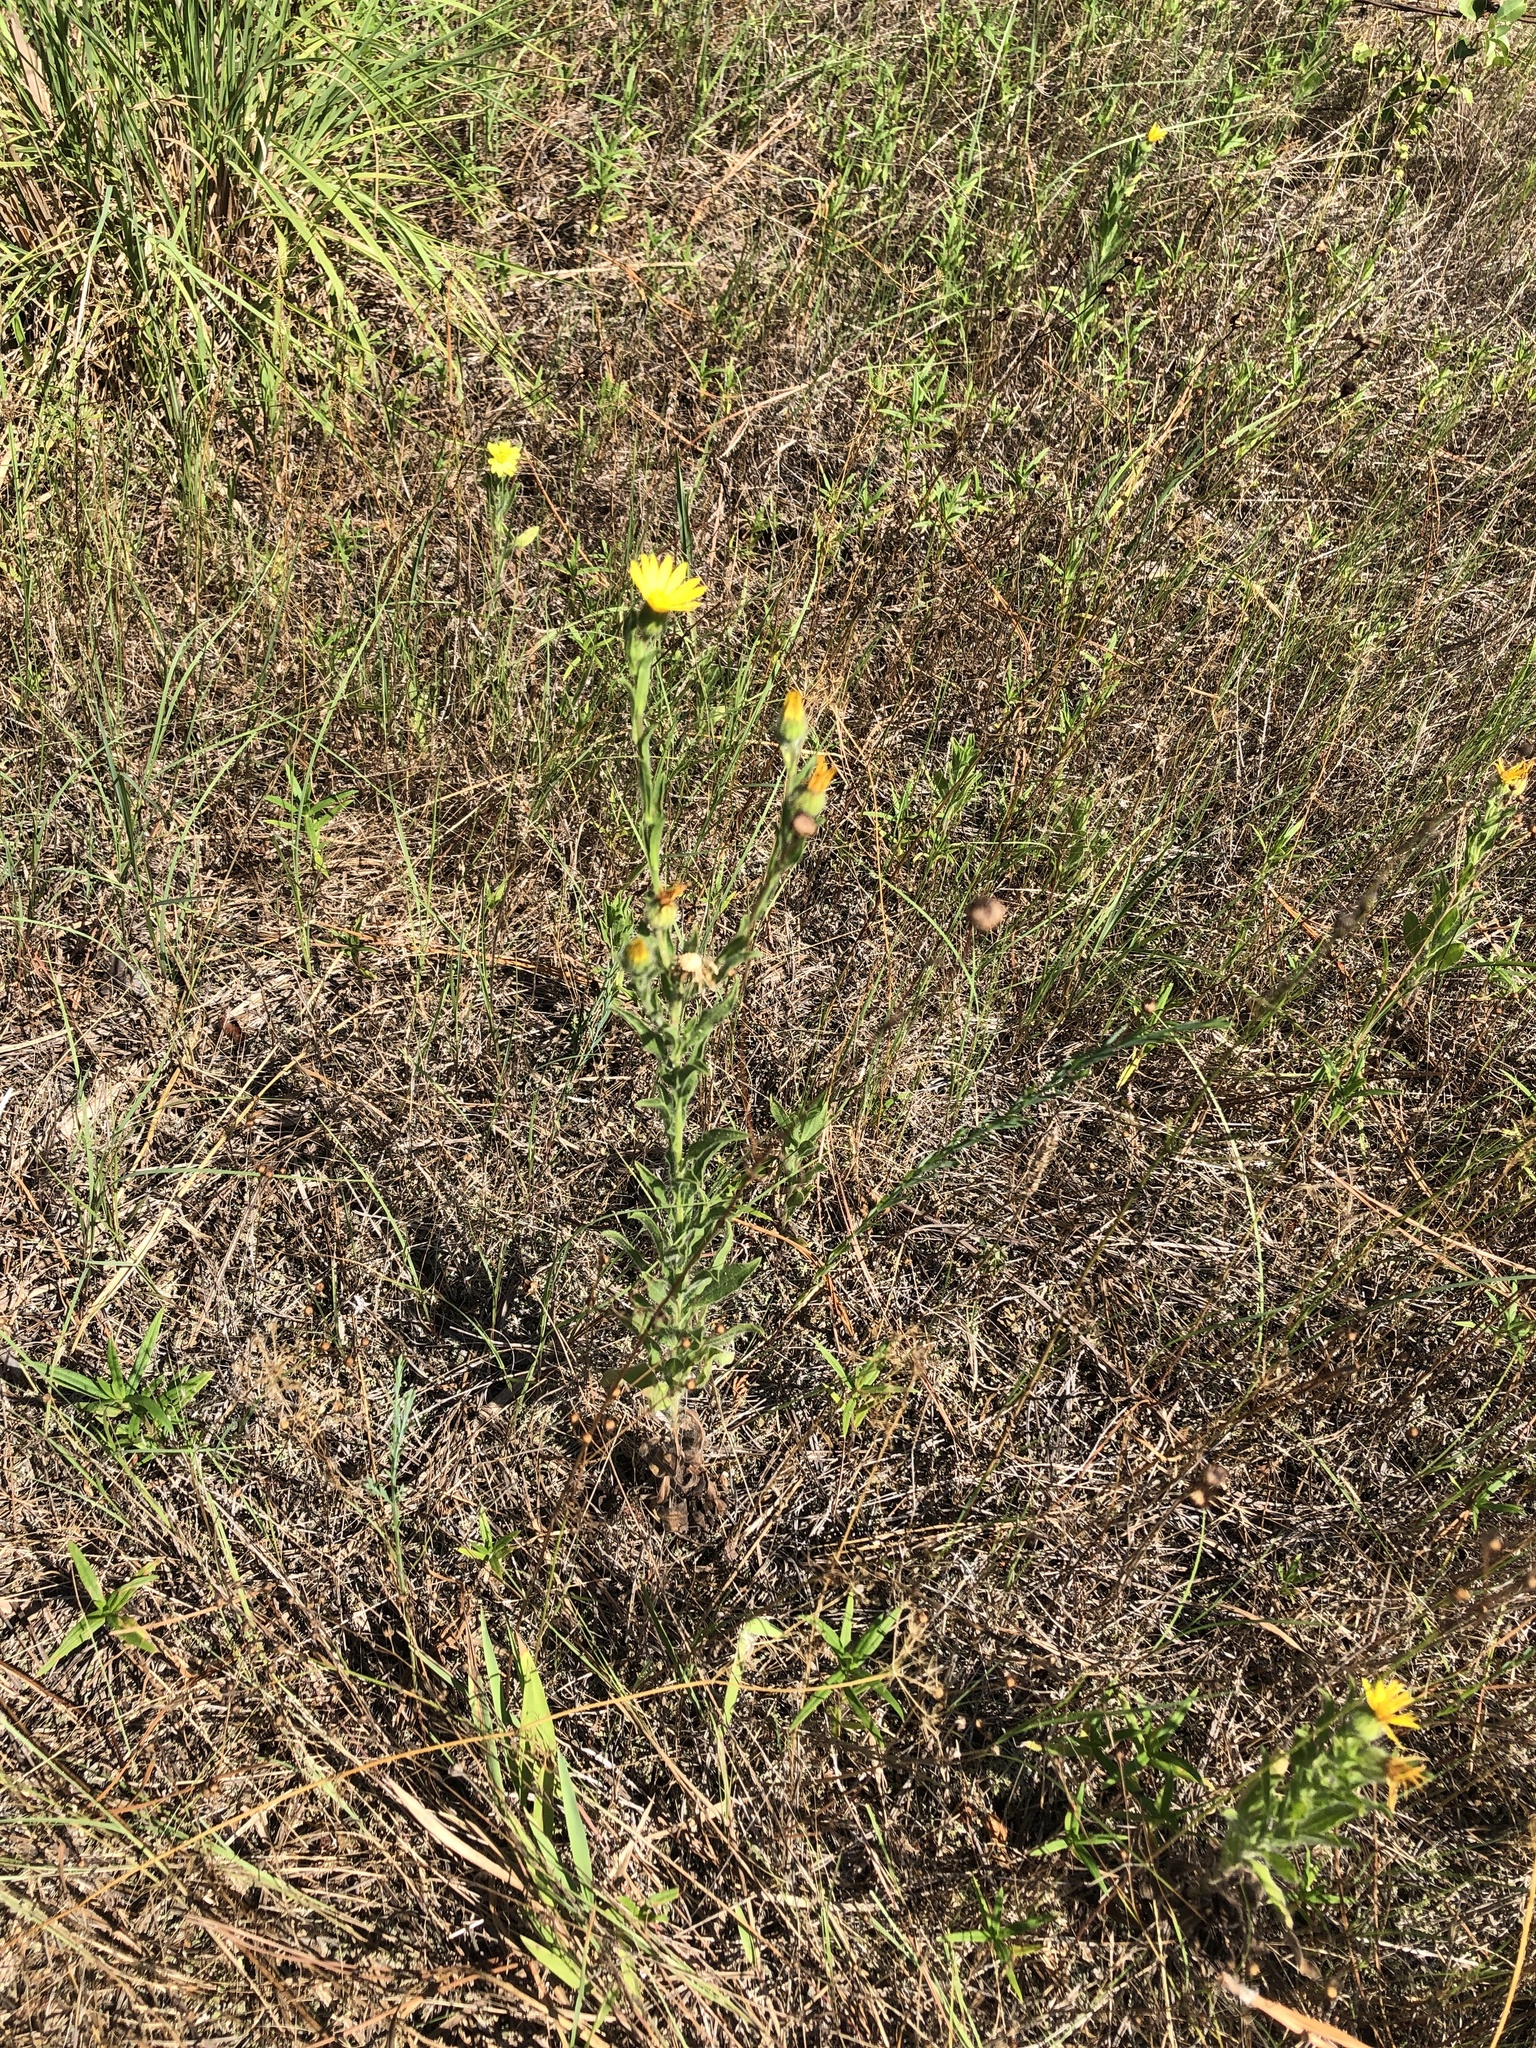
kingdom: Plantae
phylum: Tracheophyta
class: Magnoliopsida
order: Asterales
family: Asteraceae
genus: Bradburia
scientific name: Bradburia pilosa
